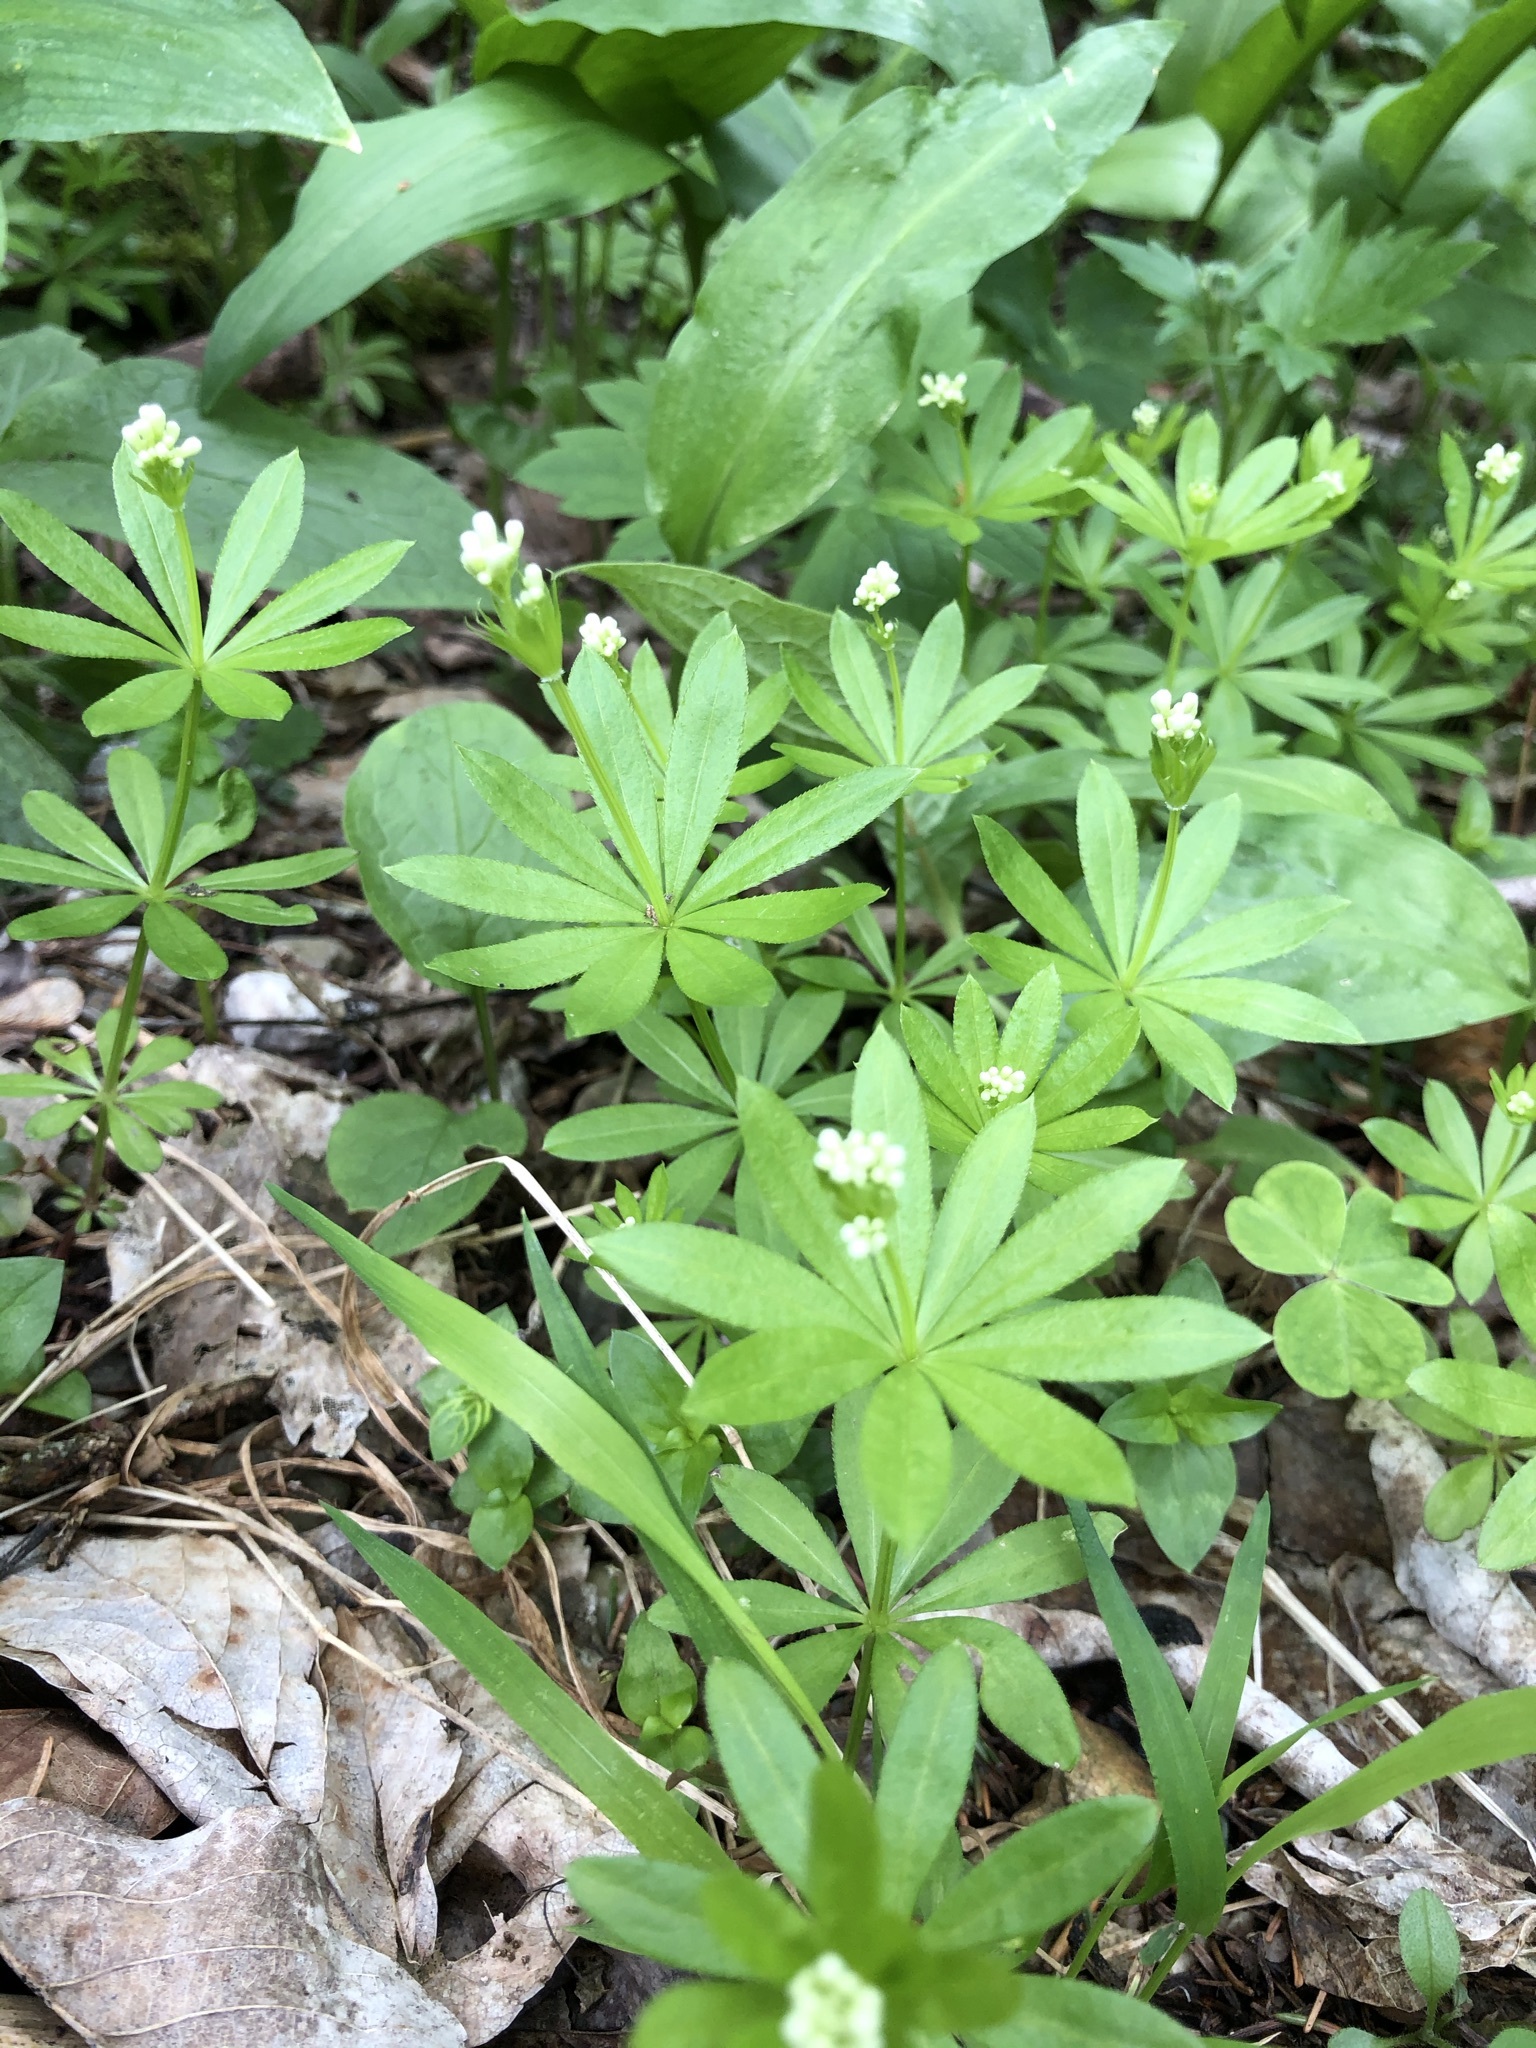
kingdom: Plantae
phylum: Tracheophyta
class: Magnoliopsida
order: Gentianales
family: Rubiaceae
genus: Galium
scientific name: Galium odoratum
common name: Sweet woodruff
